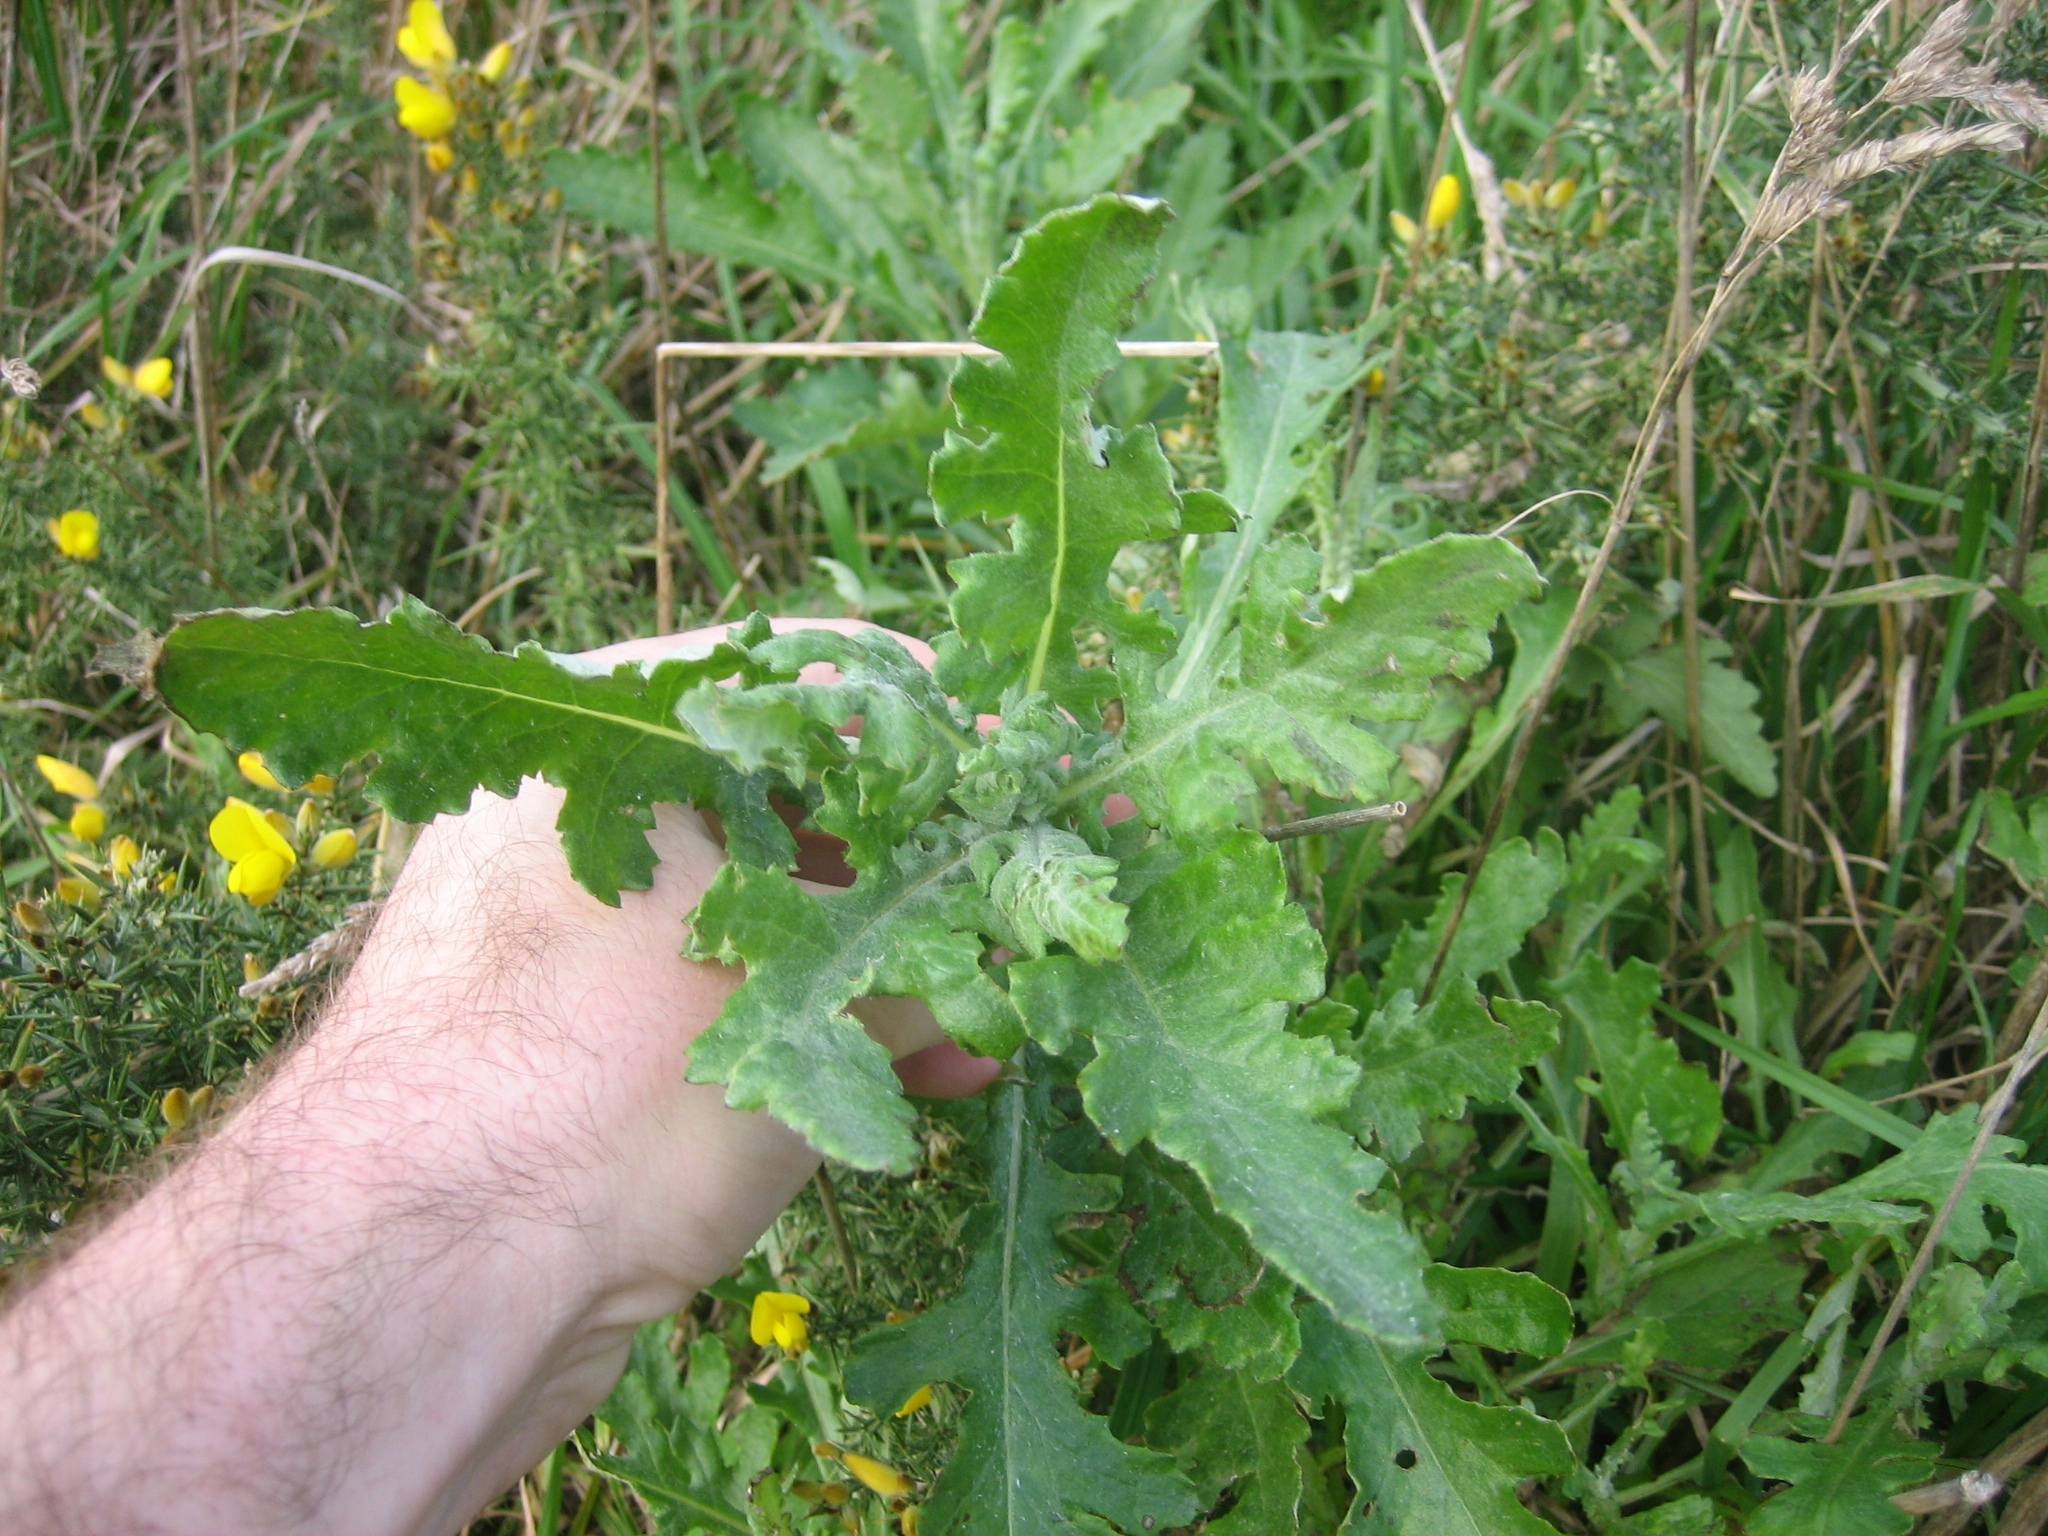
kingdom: Plantae
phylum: Tracheophyta
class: Magnoliopsida
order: Asterales
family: Asteraceae
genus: Senecio
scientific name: Senecio glomeratus
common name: Cutleaf burnweed
